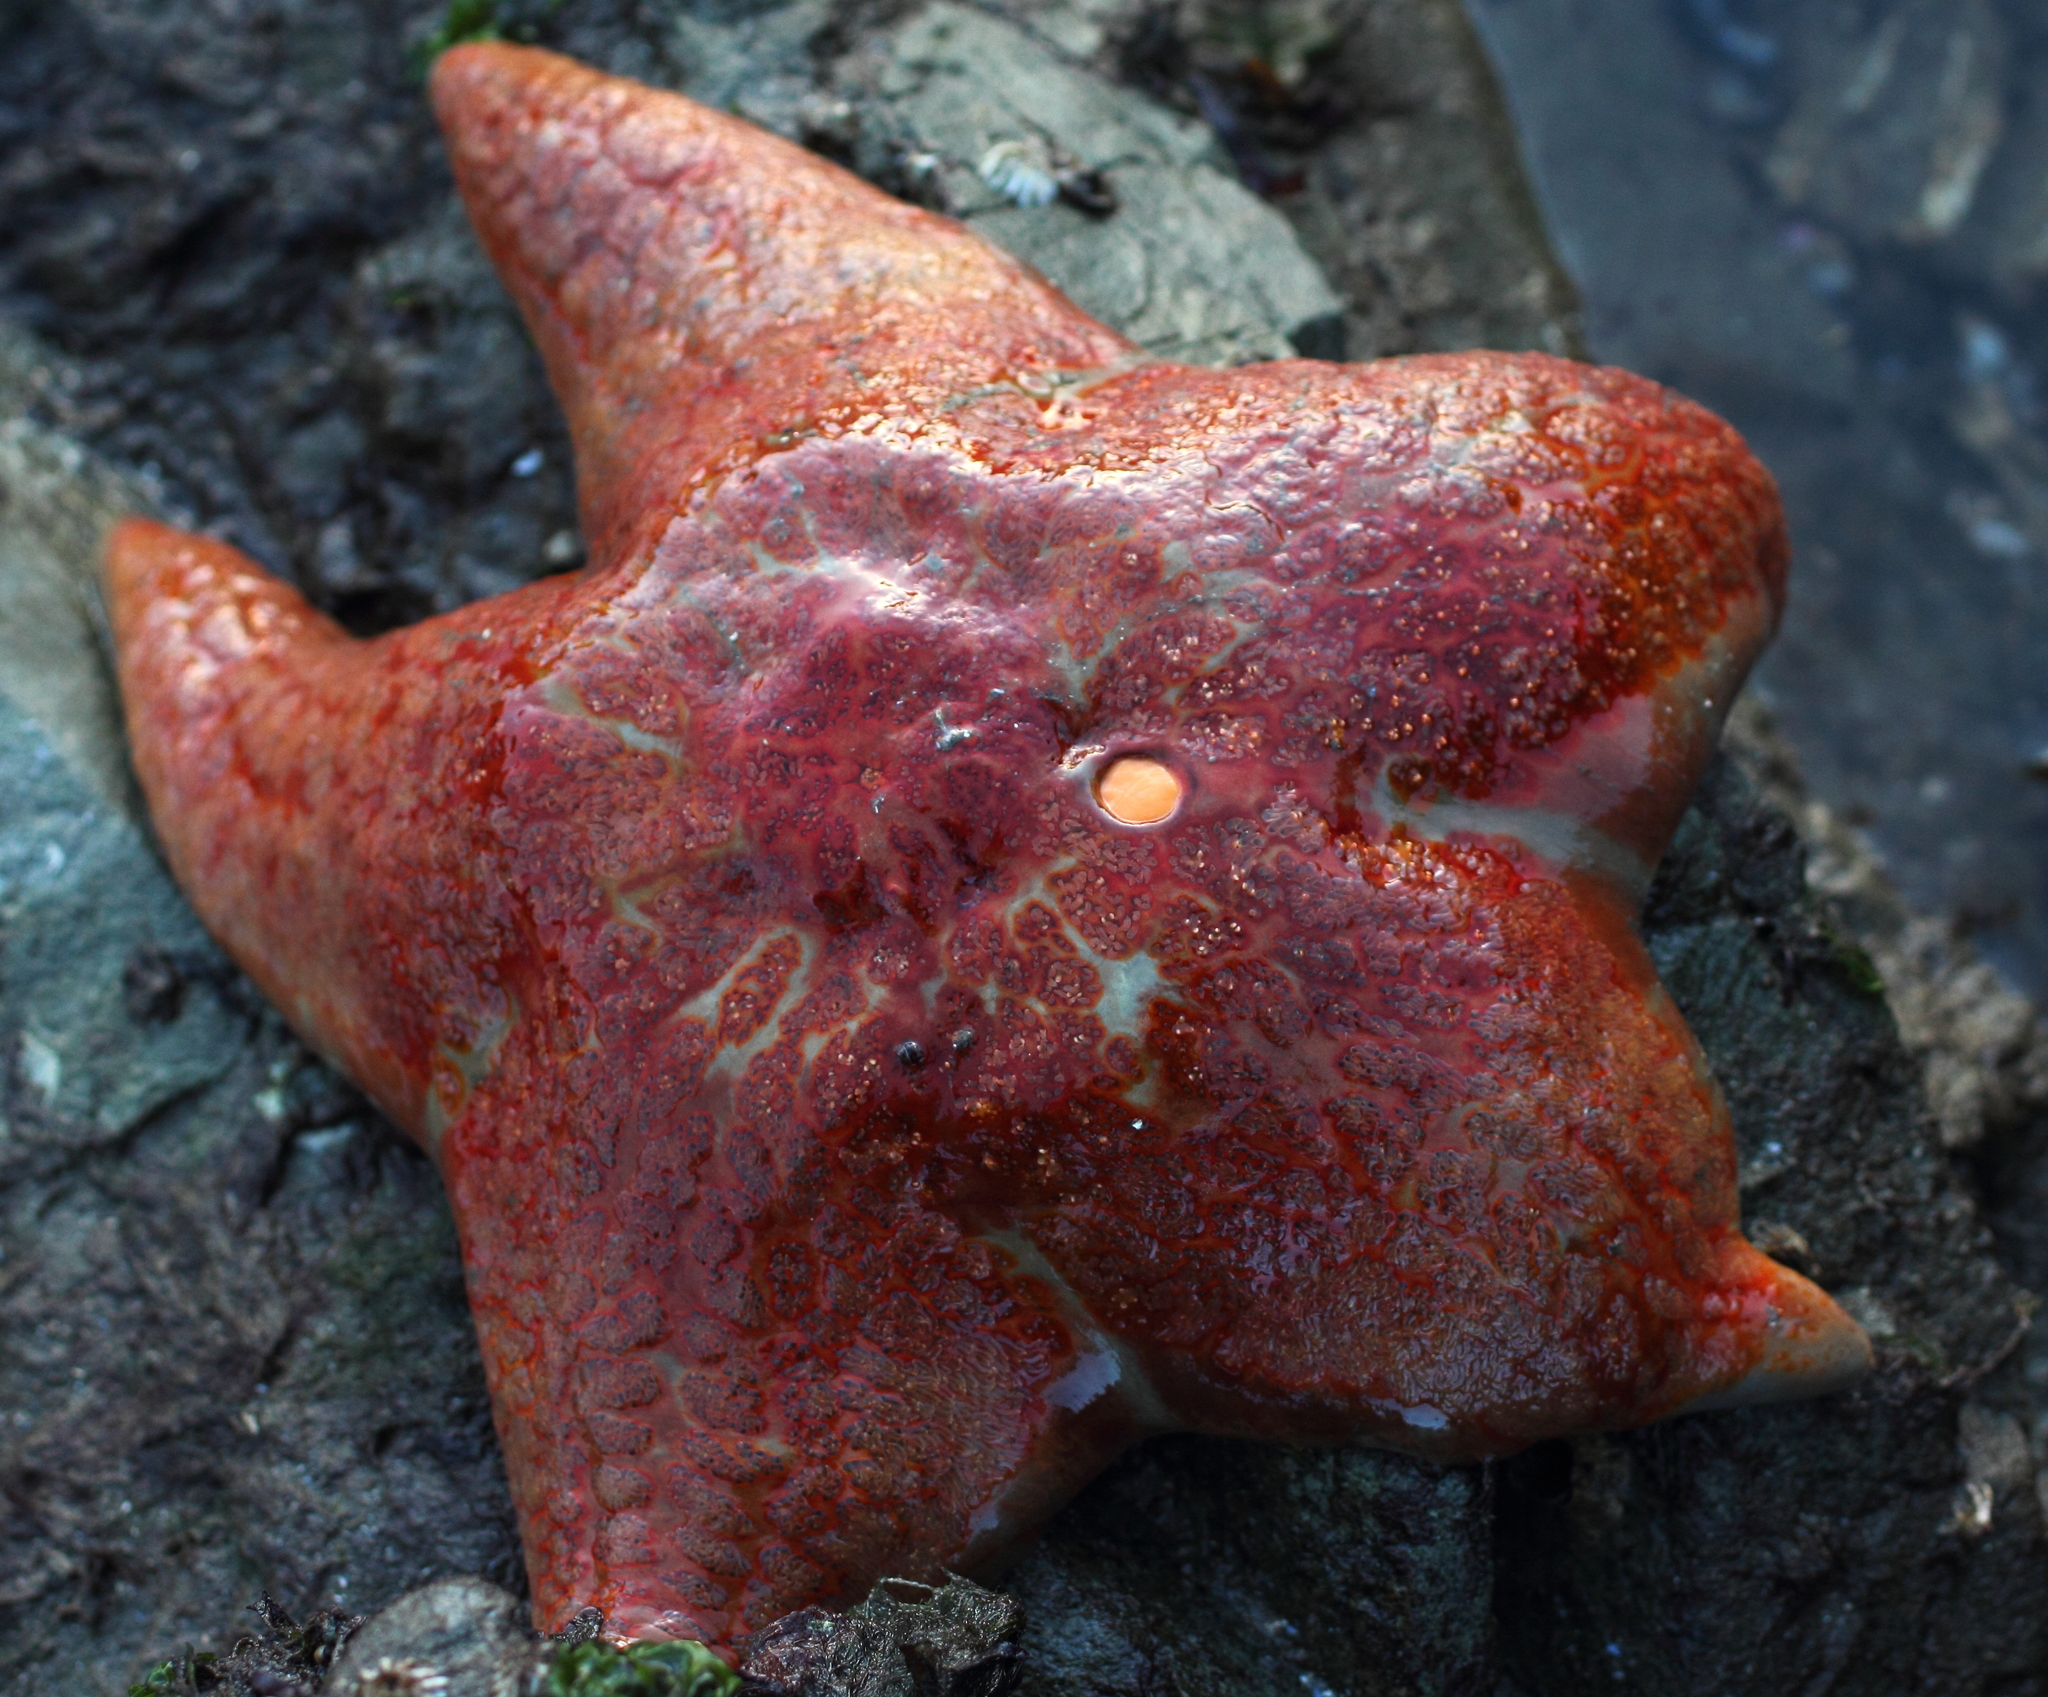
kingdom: Animalia
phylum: Echinodermata
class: Asteroidea
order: Valvatida
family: Asteropseidae
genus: Dermasterias
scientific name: Dermasterias imbricata
